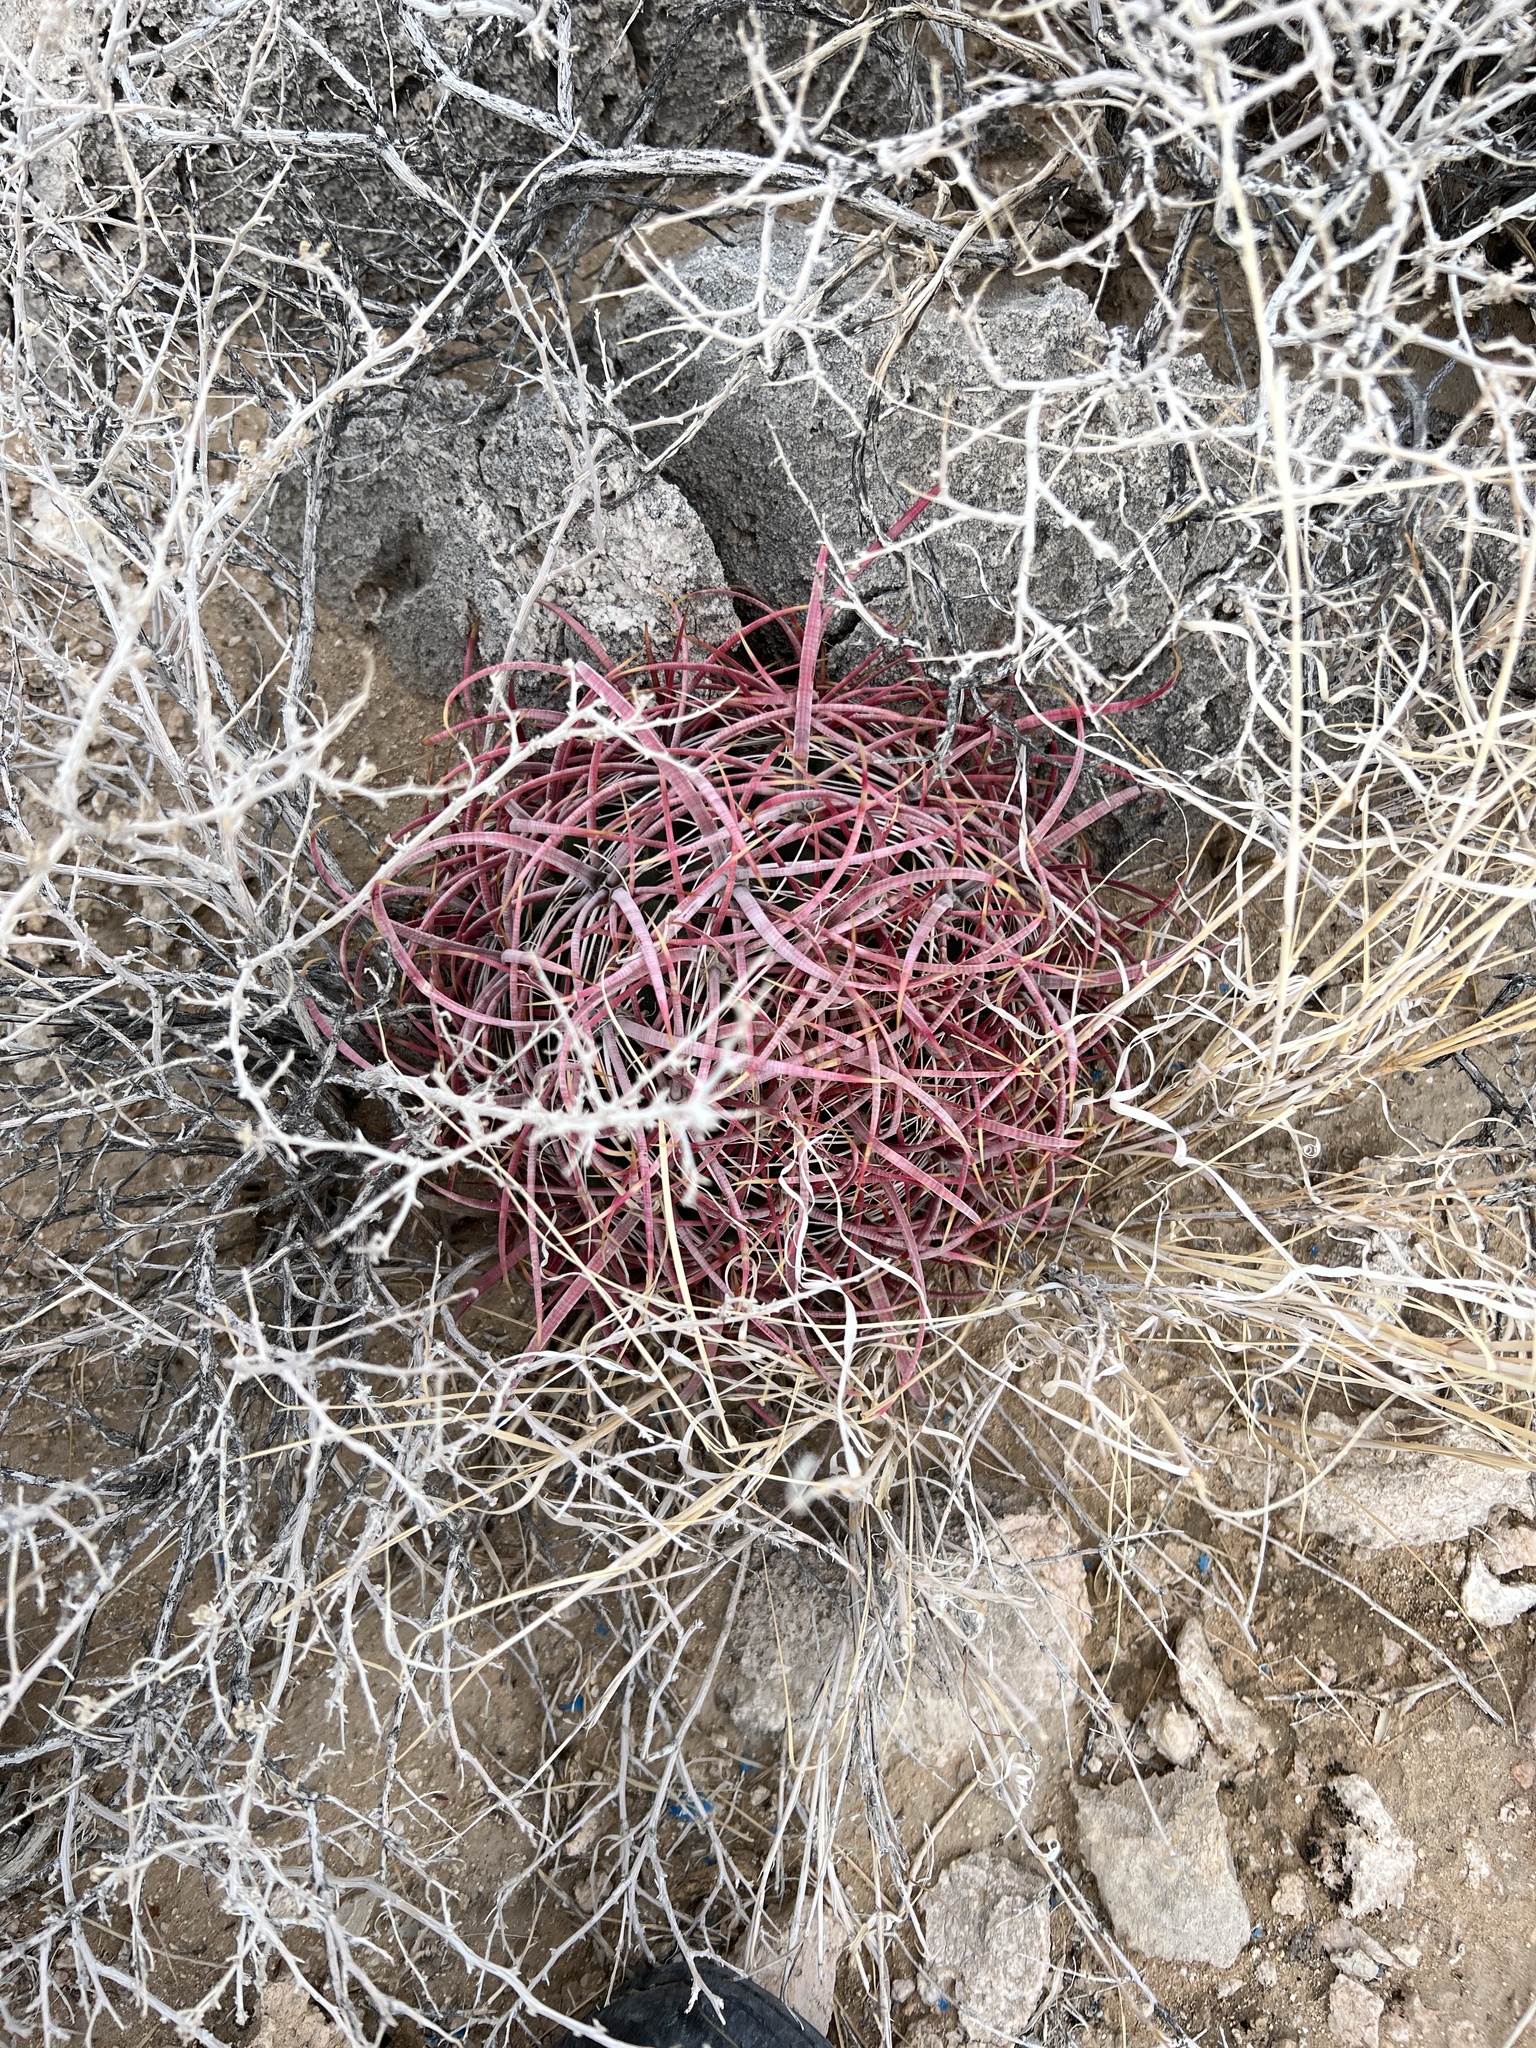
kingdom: Plantae
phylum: Tracheophyta
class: Magnoliopsida
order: Caryophyllales
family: Cactaceae
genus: Ferocactus
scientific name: Ferocactus cylindraceus
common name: California barrel cactus
